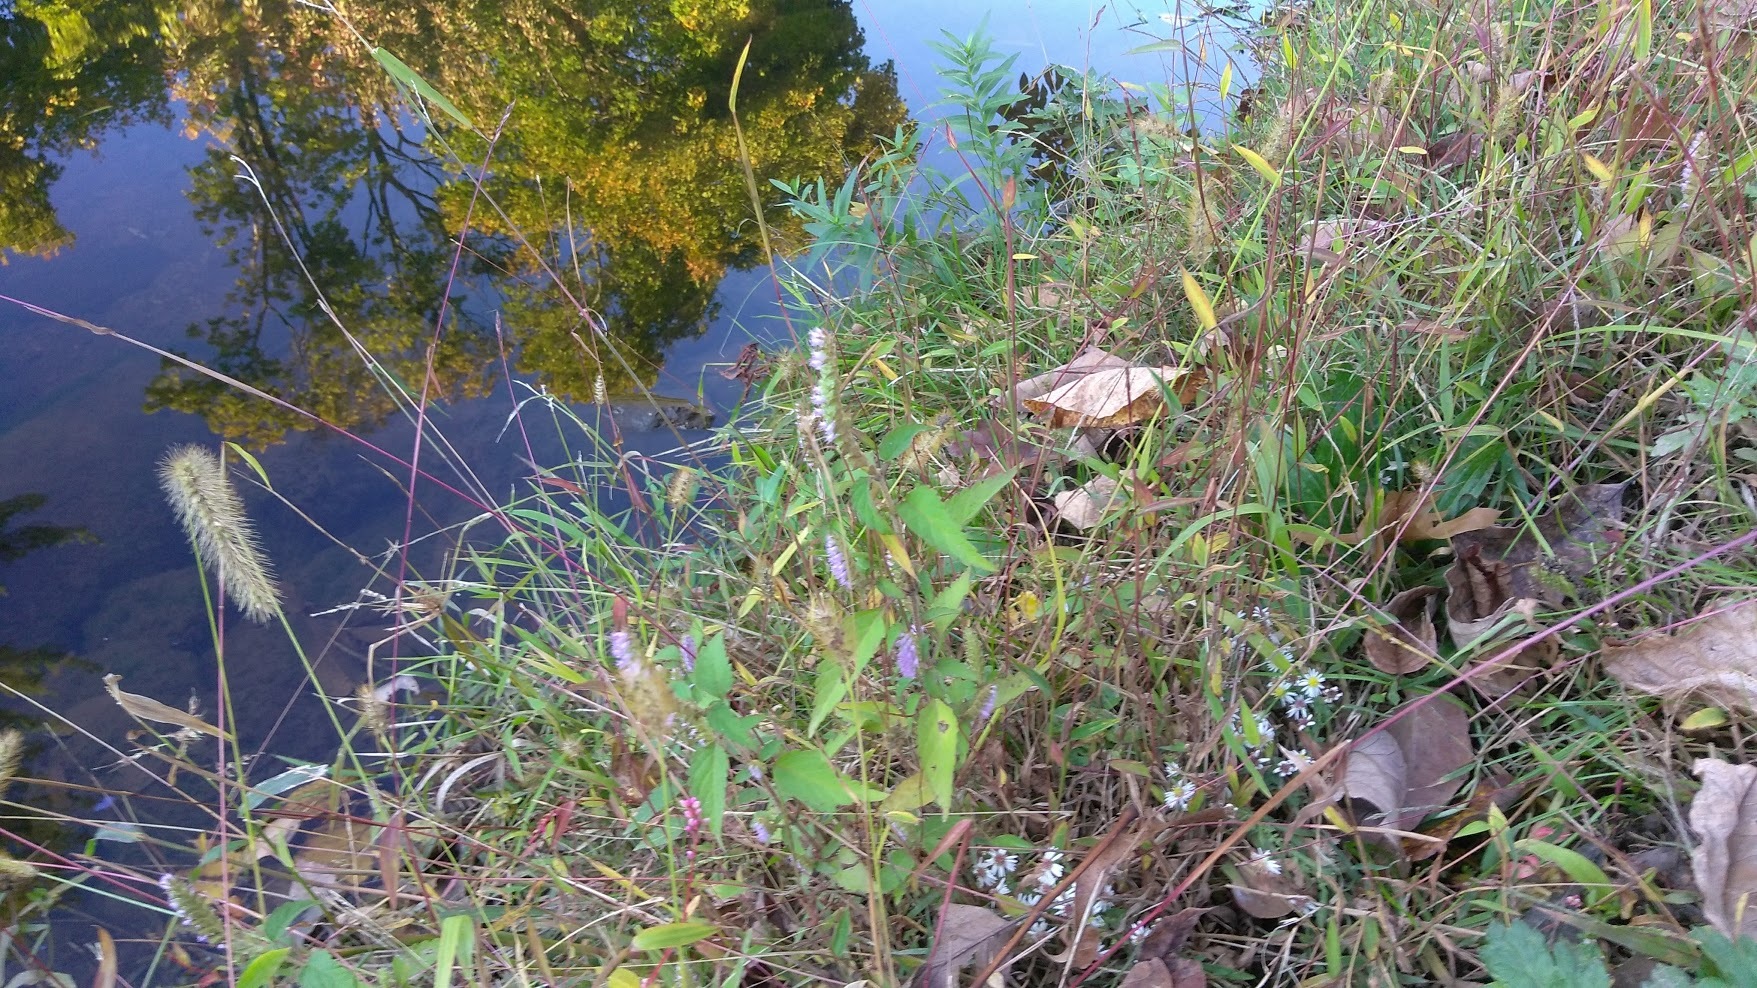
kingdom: Plantae
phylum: Tracheophyta
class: Magnoliopsida
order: Lamiales
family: Lamiaceae
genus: Elsholtzia
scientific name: Elsholtzia ciliata
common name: Ciliate elsholtzia
